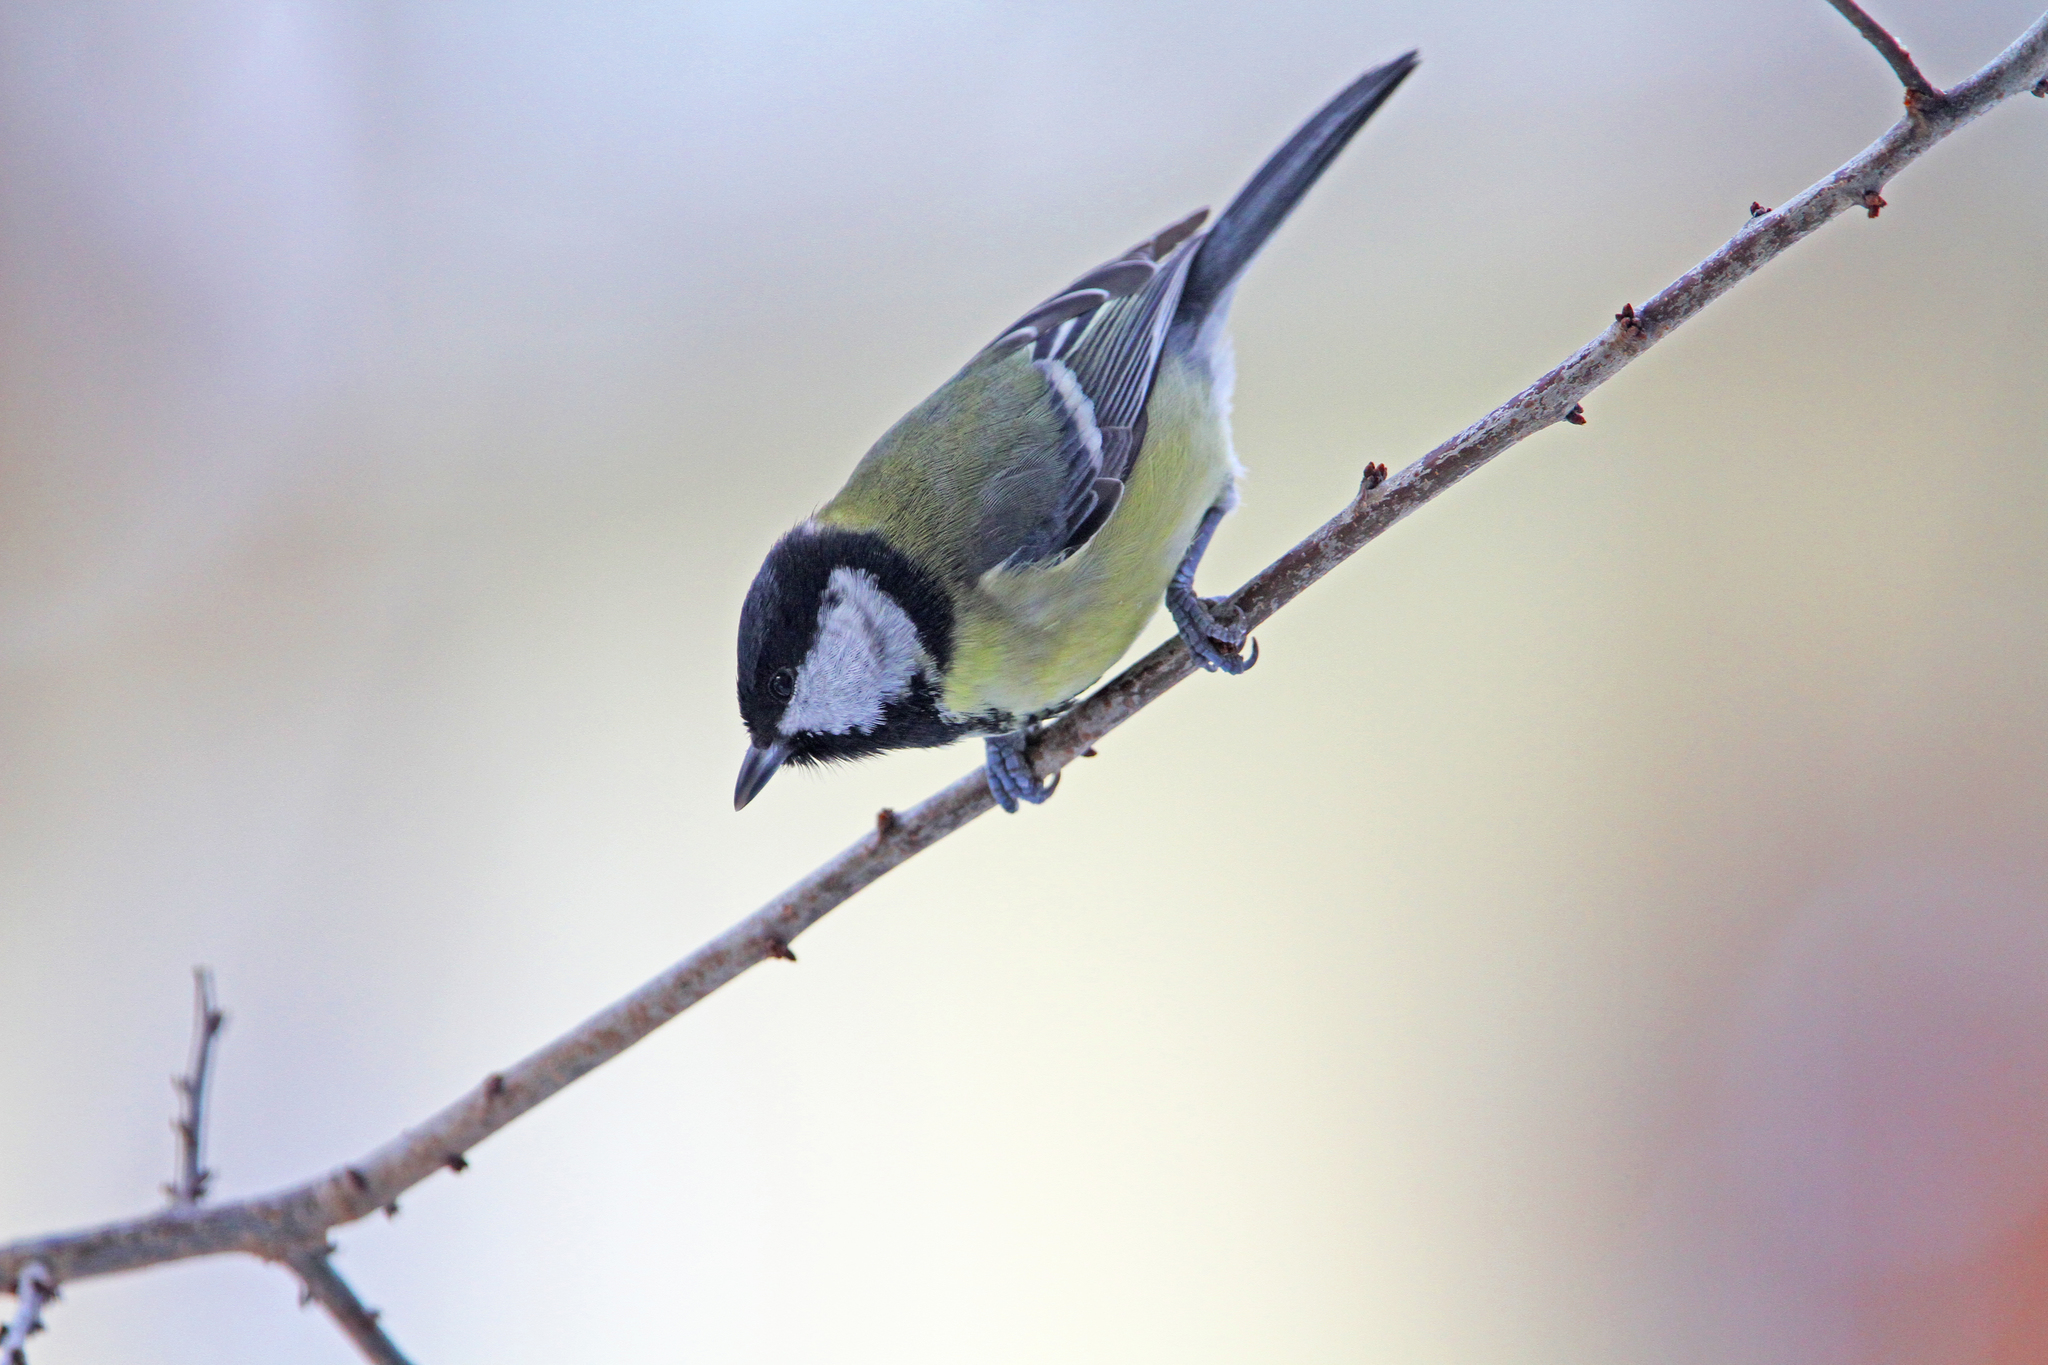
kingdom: Animalia
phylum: Chordata
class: Aves
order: Passeriformes
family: Paridae
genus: Parus
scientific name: Parus major
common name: Great tit
